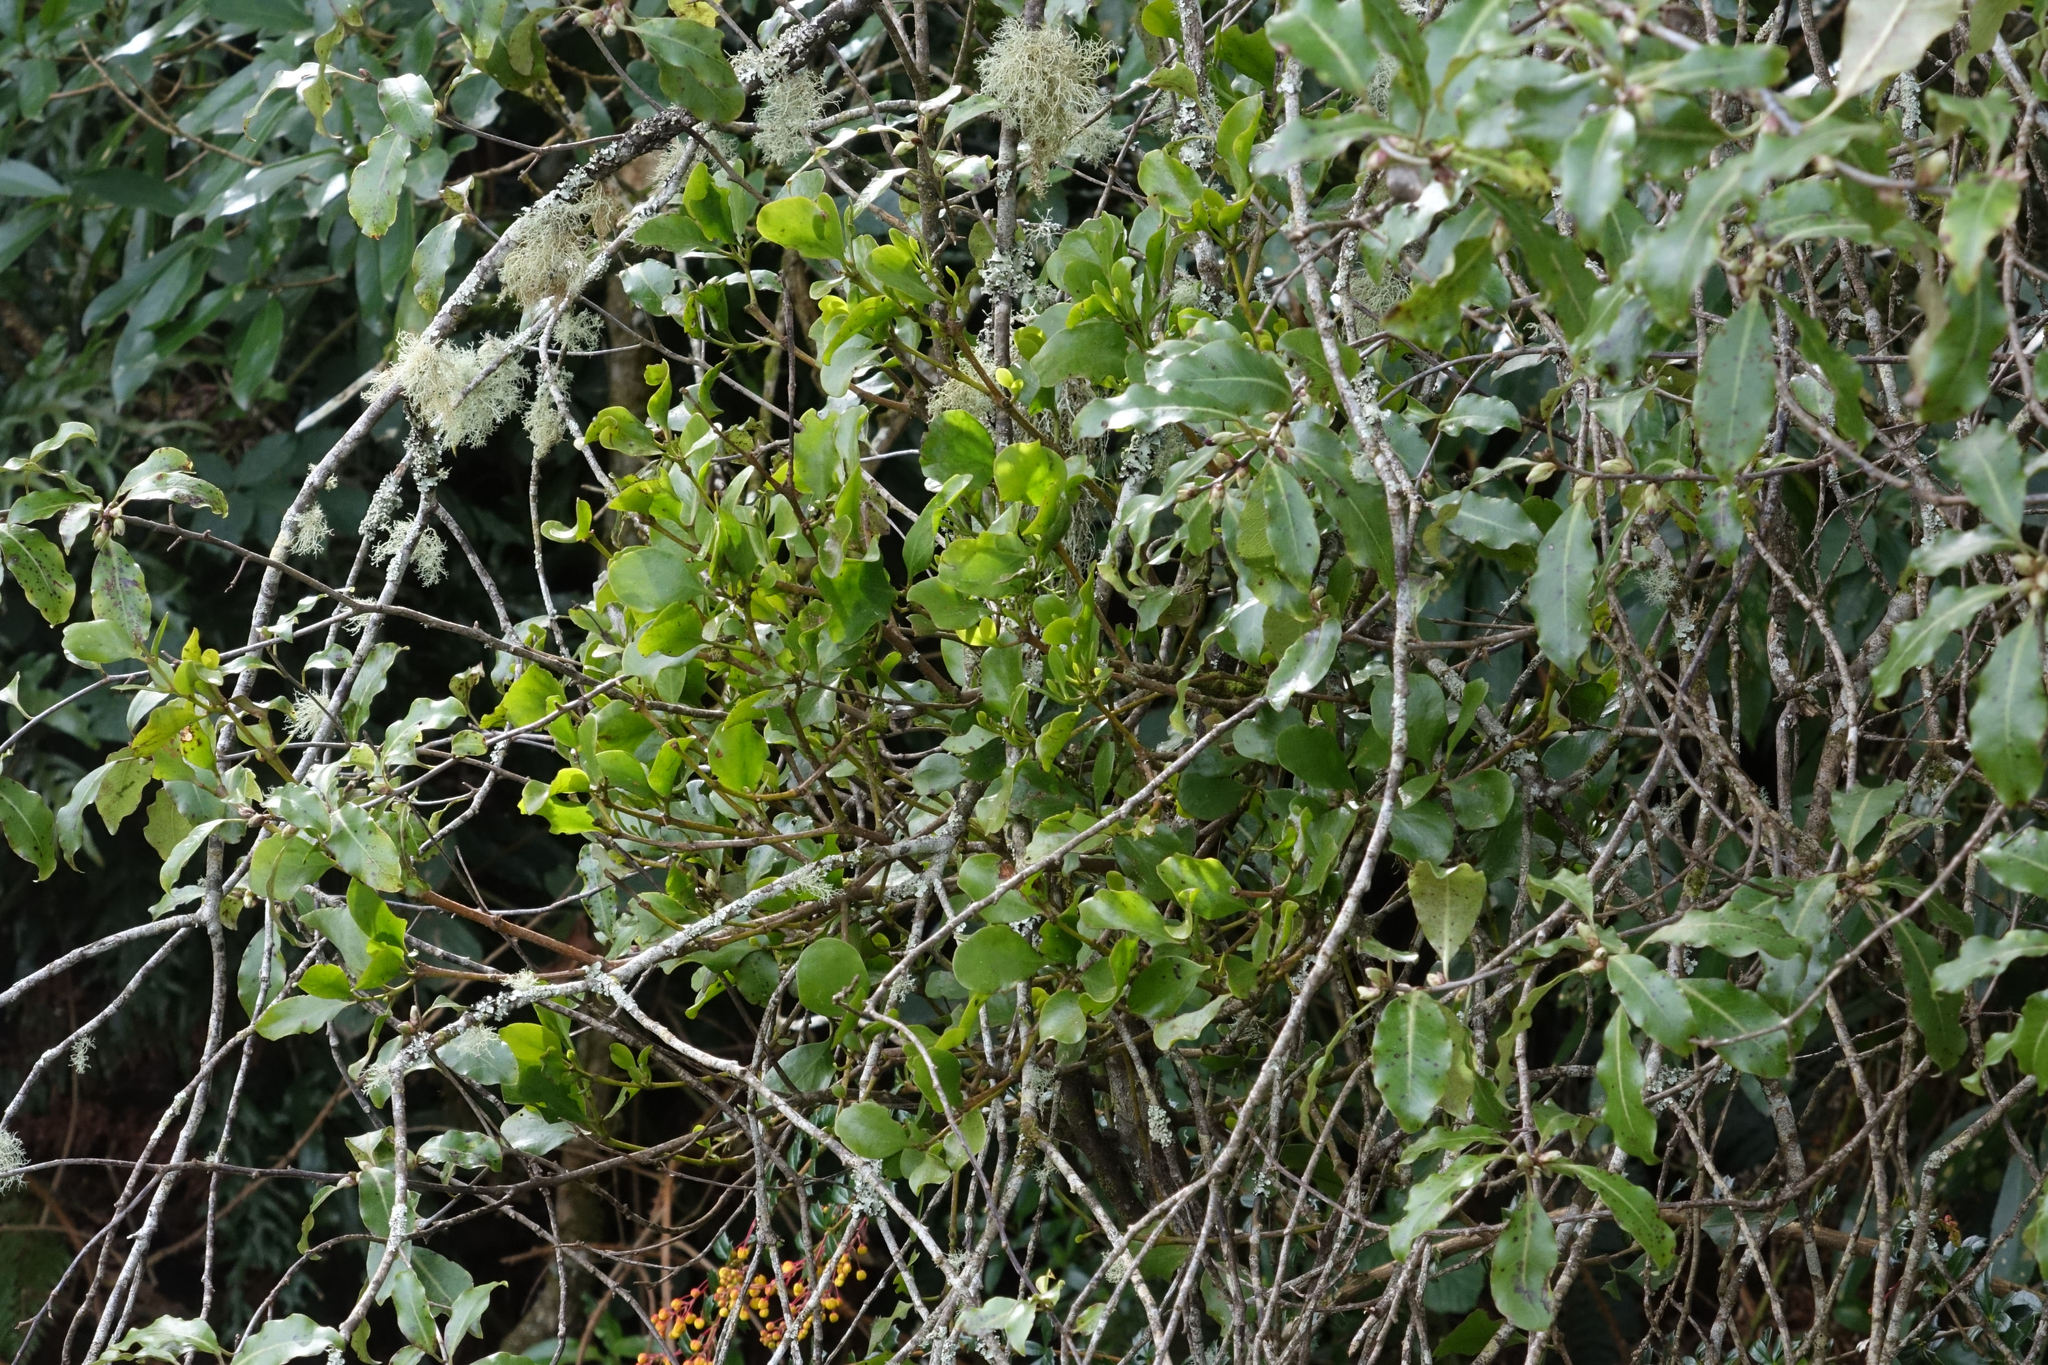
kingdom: Plantae
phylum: Tracheophyta
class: Magnoliopsida
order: Santalales
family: Loranthaceae
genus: Ileostylus
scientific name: Ileostylus micranthus
